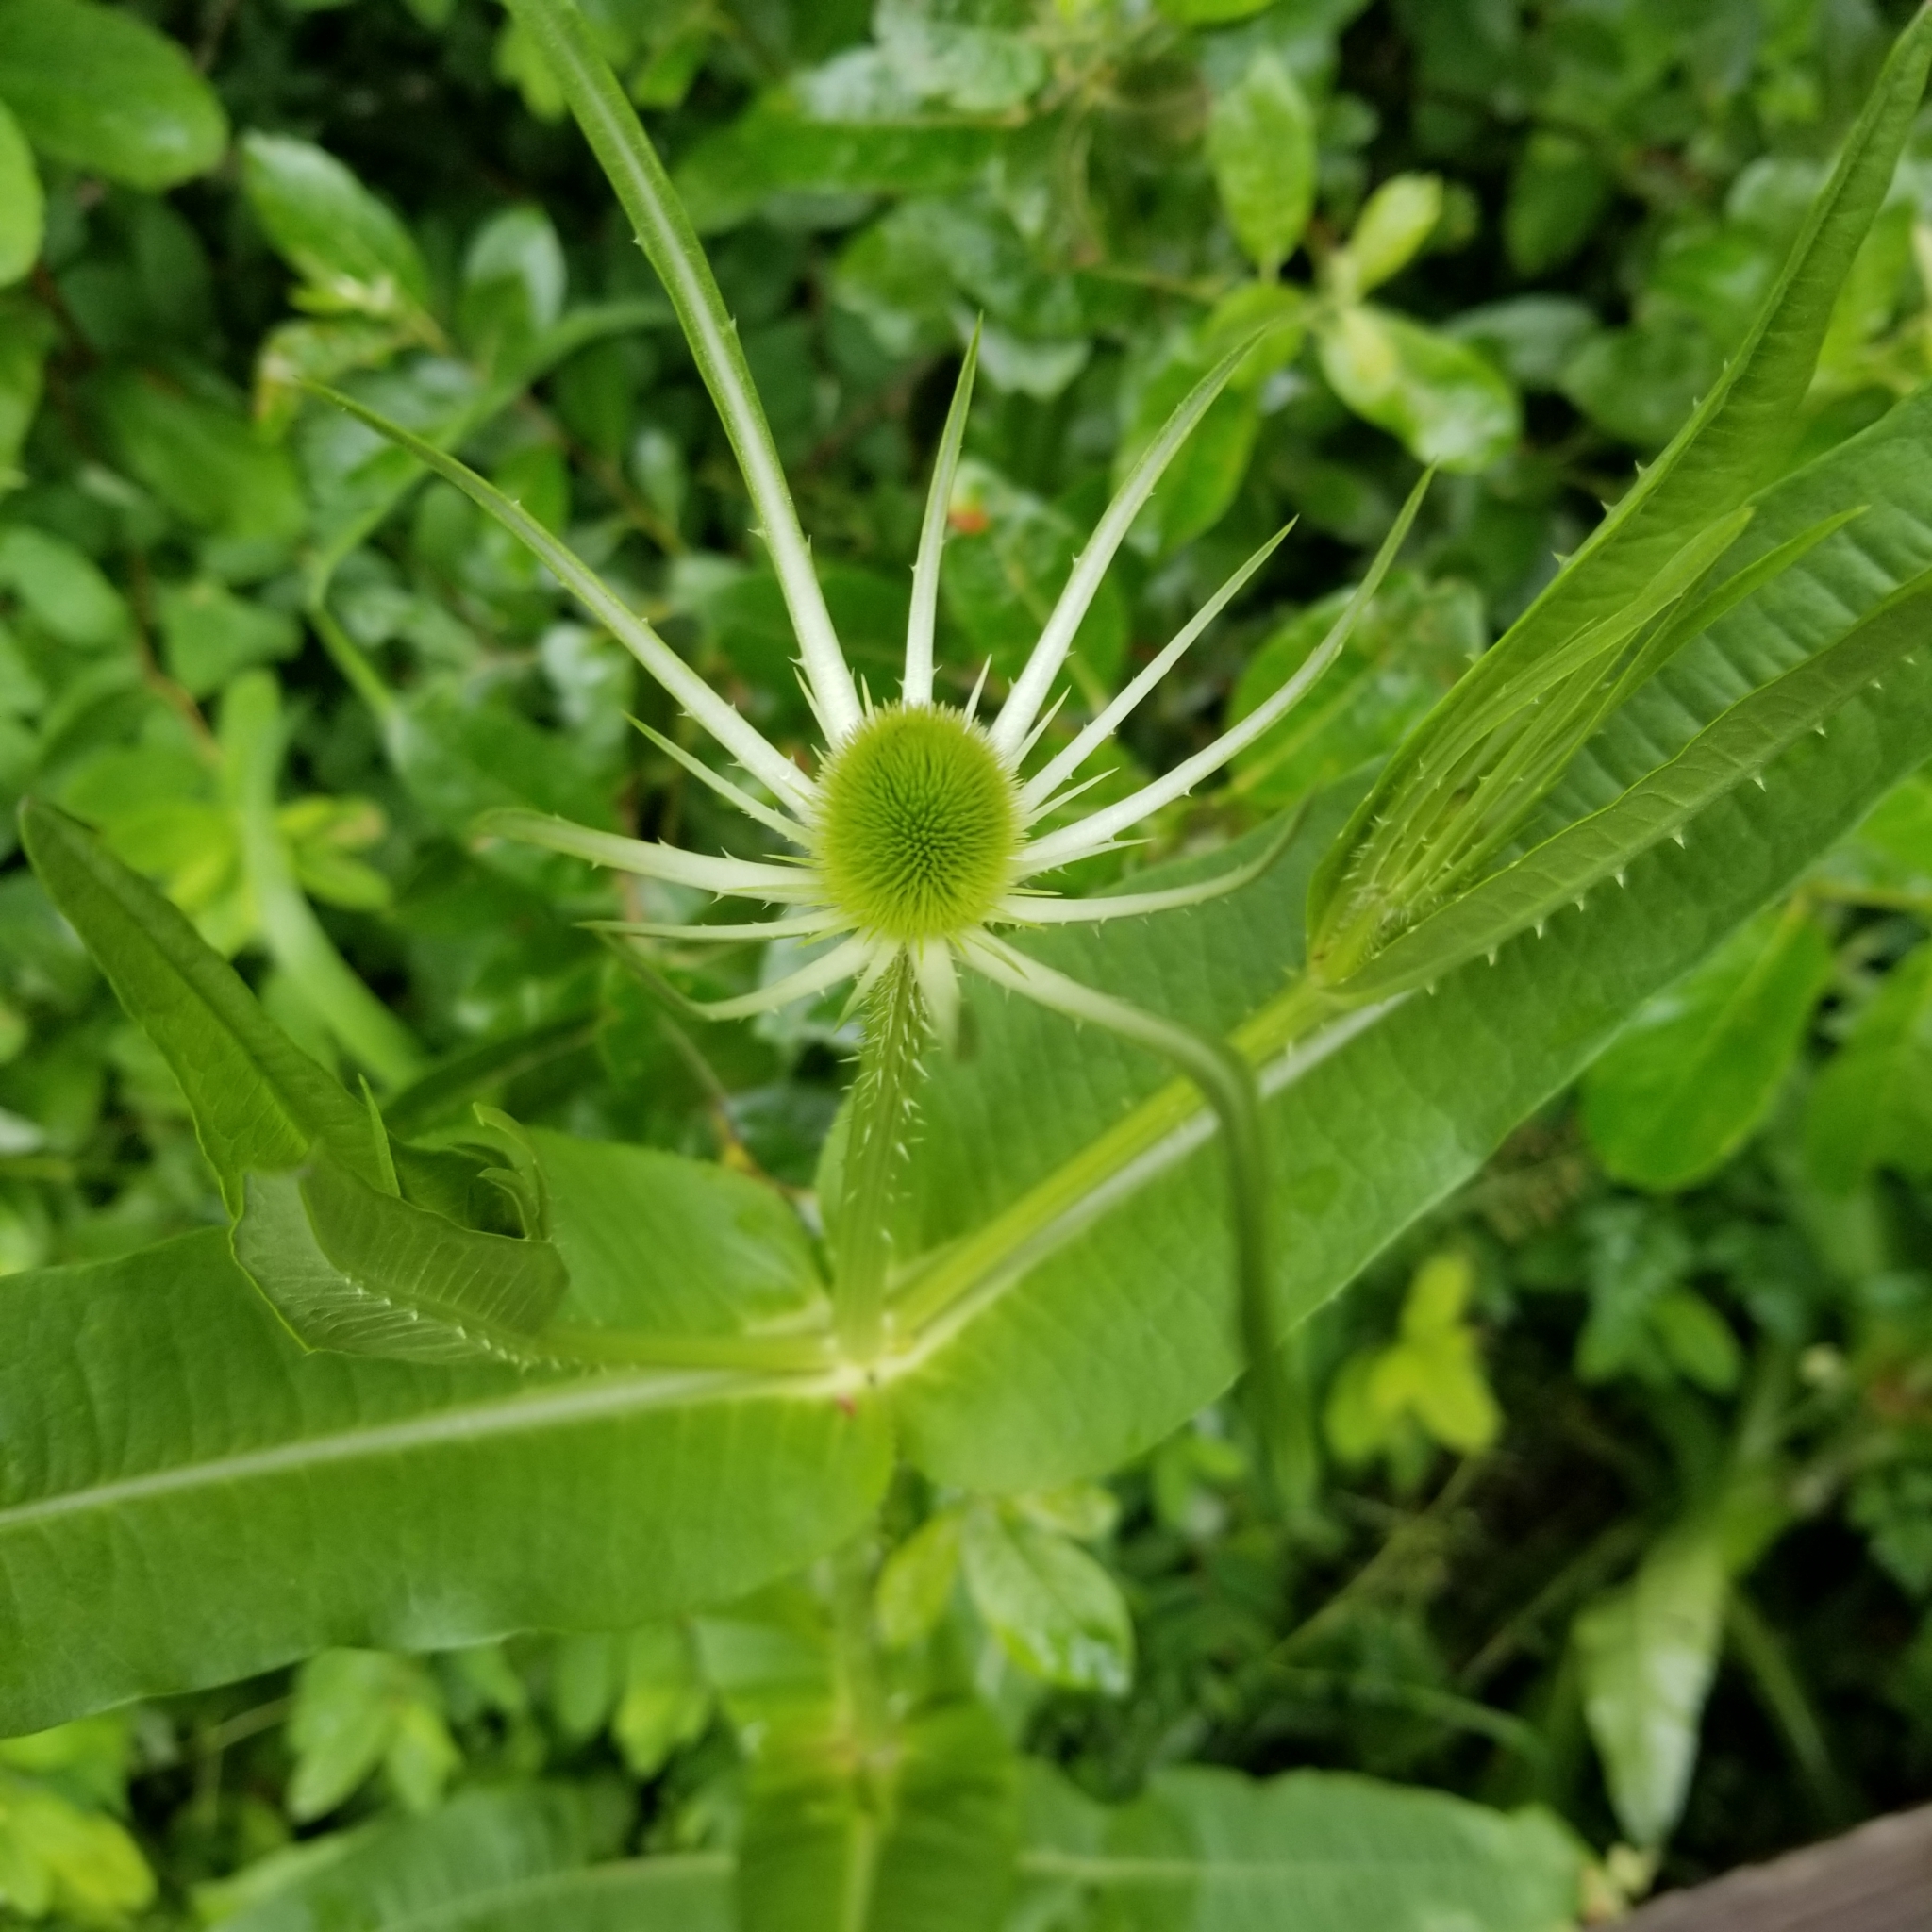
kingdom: Plantae
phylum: Tracheophyta
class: Magnoliopsida
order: Dipsacales
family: Caprifoliaceae
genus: Dipsacus
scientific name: Dipsacus fullonum
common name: Teasel
